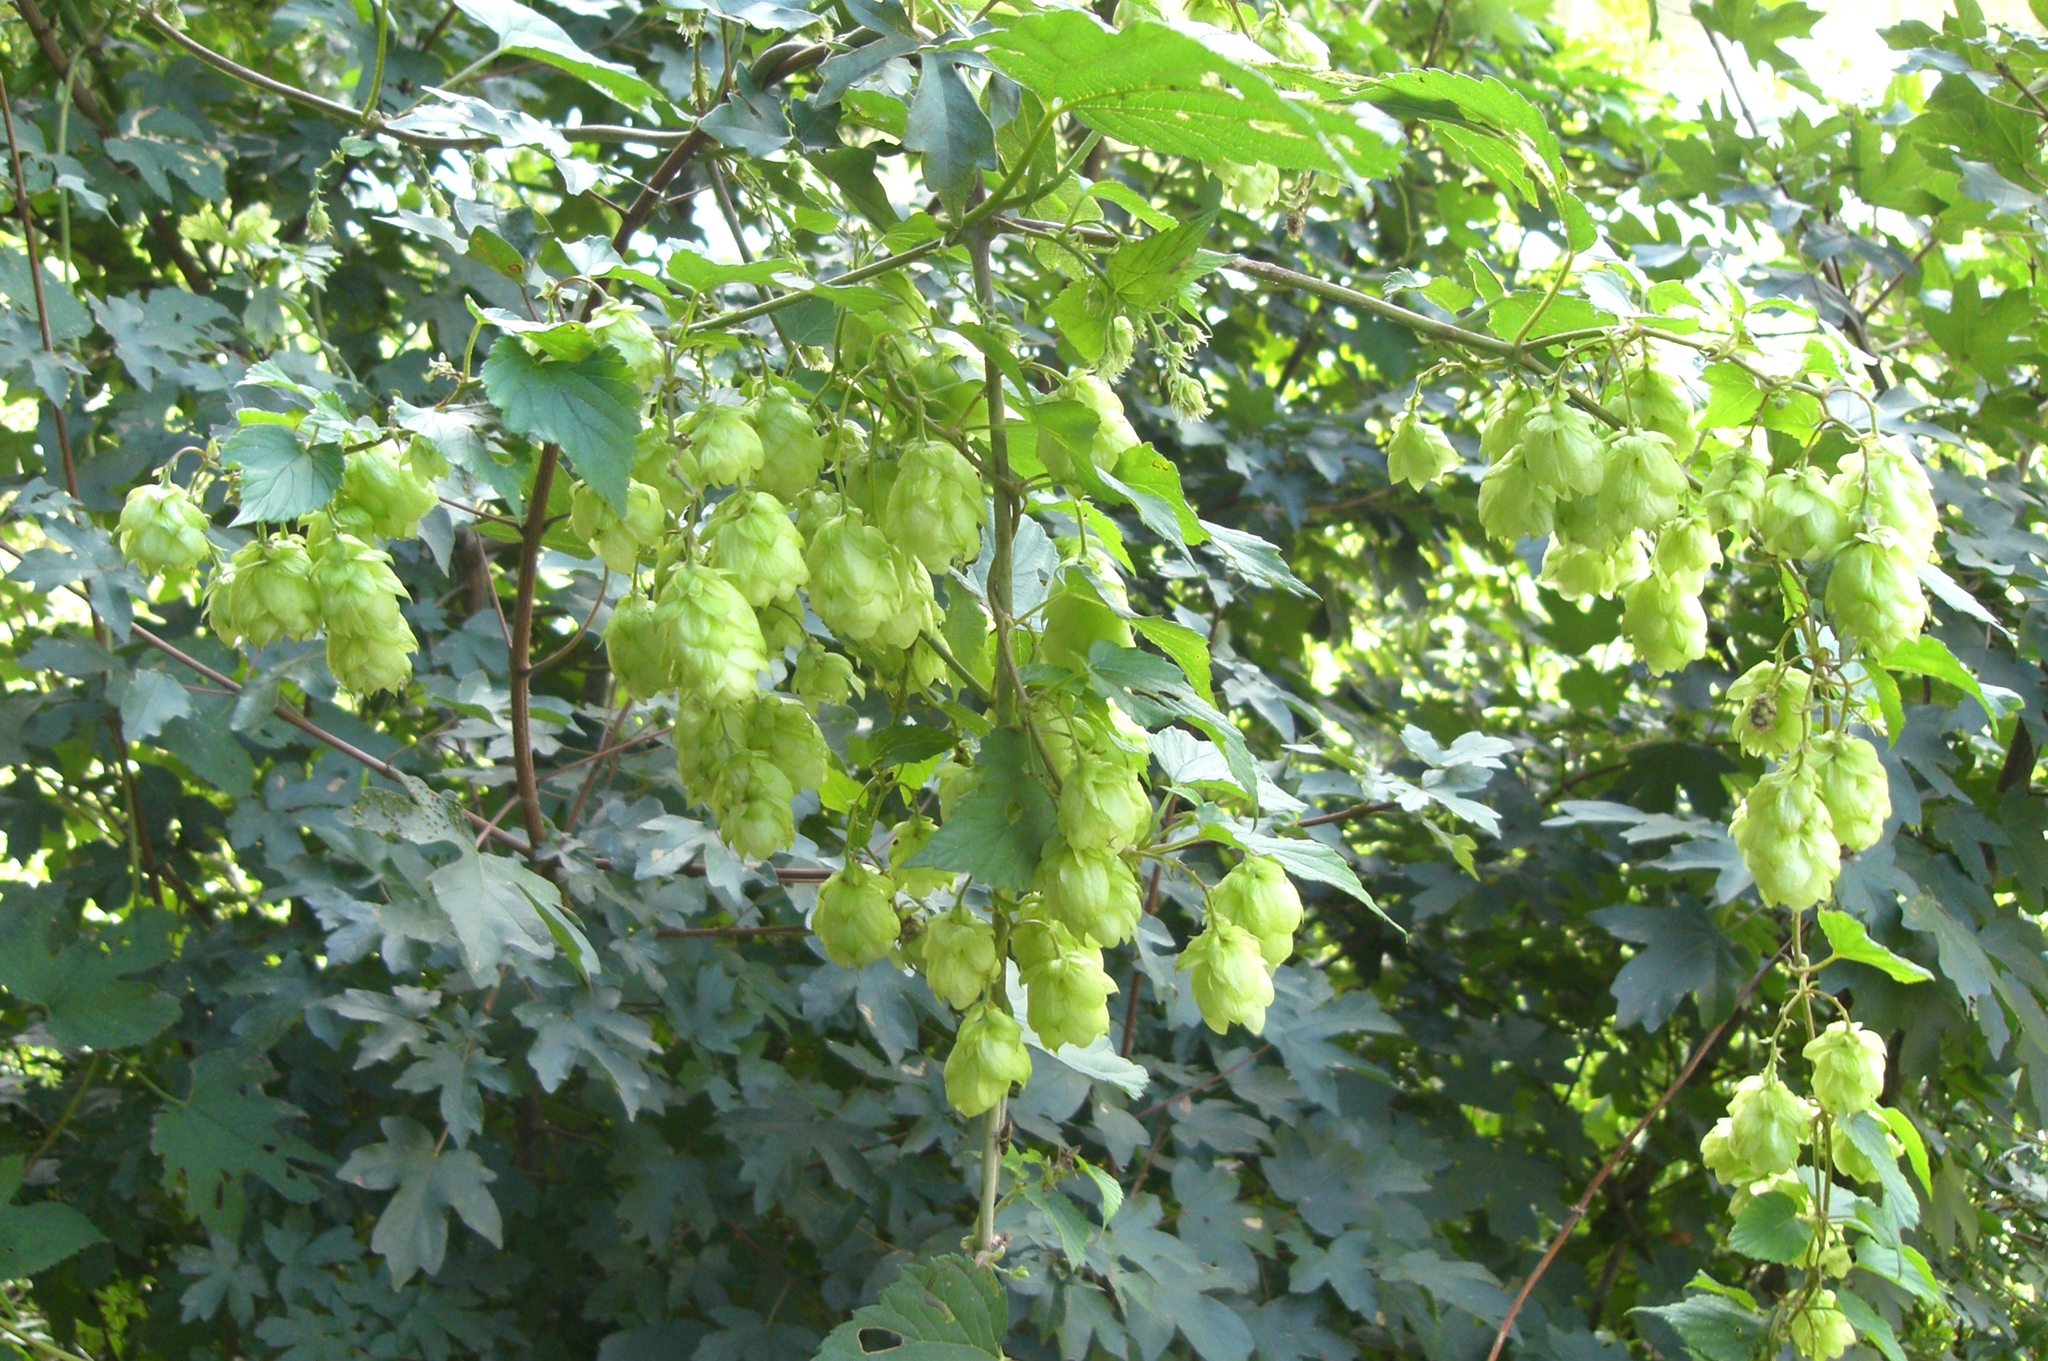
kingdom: Plantae
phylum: Tracheophyta
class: Magnoliopsida
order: Rosales
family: Cannabaceae
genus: Humulus
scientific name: Humulus lupulus
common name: Hop
